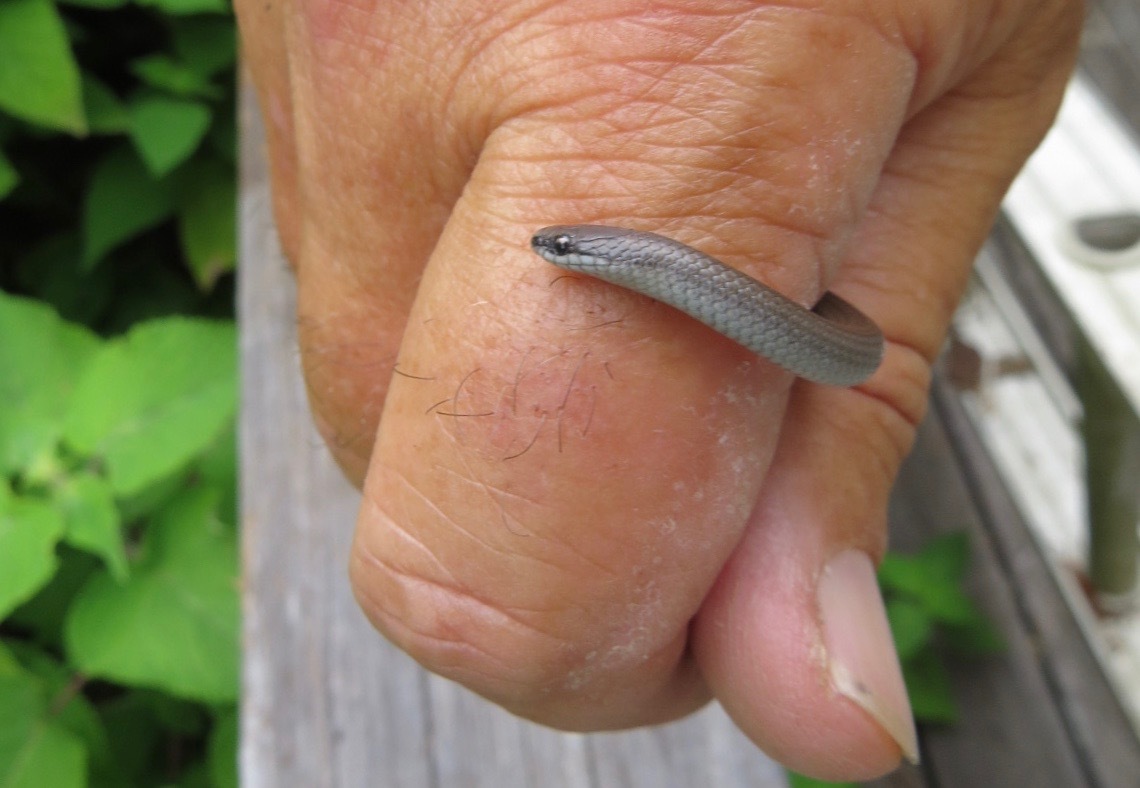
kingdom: Animalia
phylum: Chordata
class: Squamata
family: Colubridae
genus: Contia
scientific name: Contia longicaudae
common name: Forest sharp-tailed snake
